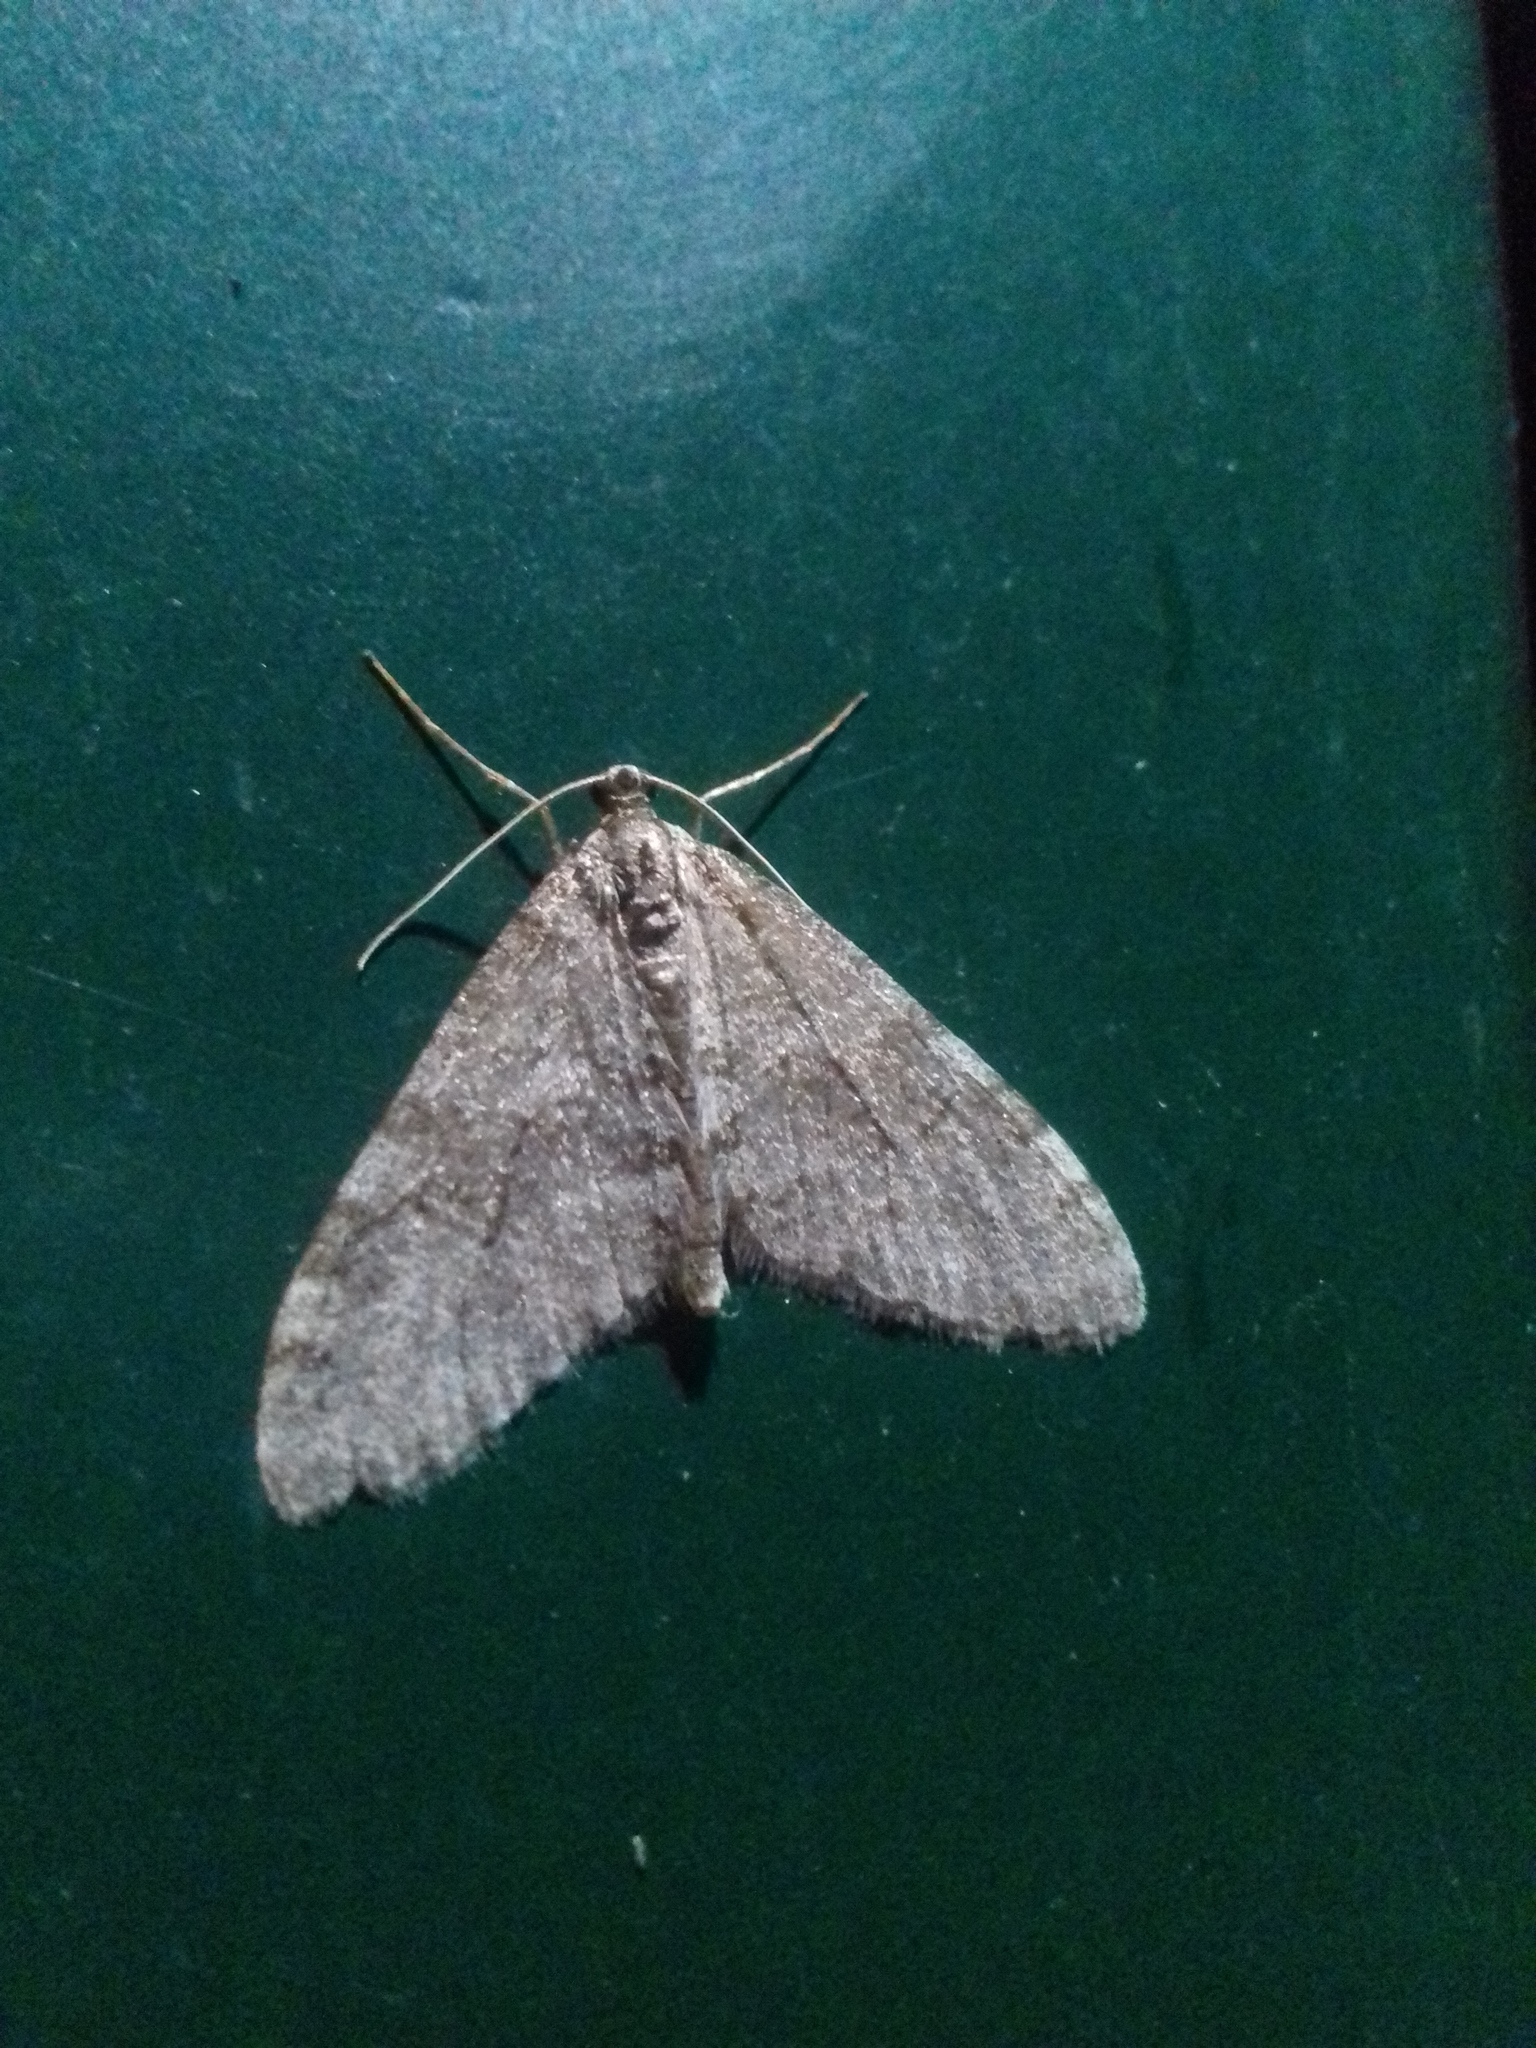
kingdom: Animalia
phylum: Arthropoda
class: Insecta
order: Lepidoptera
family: Geometridae
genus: Trichopteryx
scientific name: Trichopteryx carpinata
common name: Early tooth-striped
